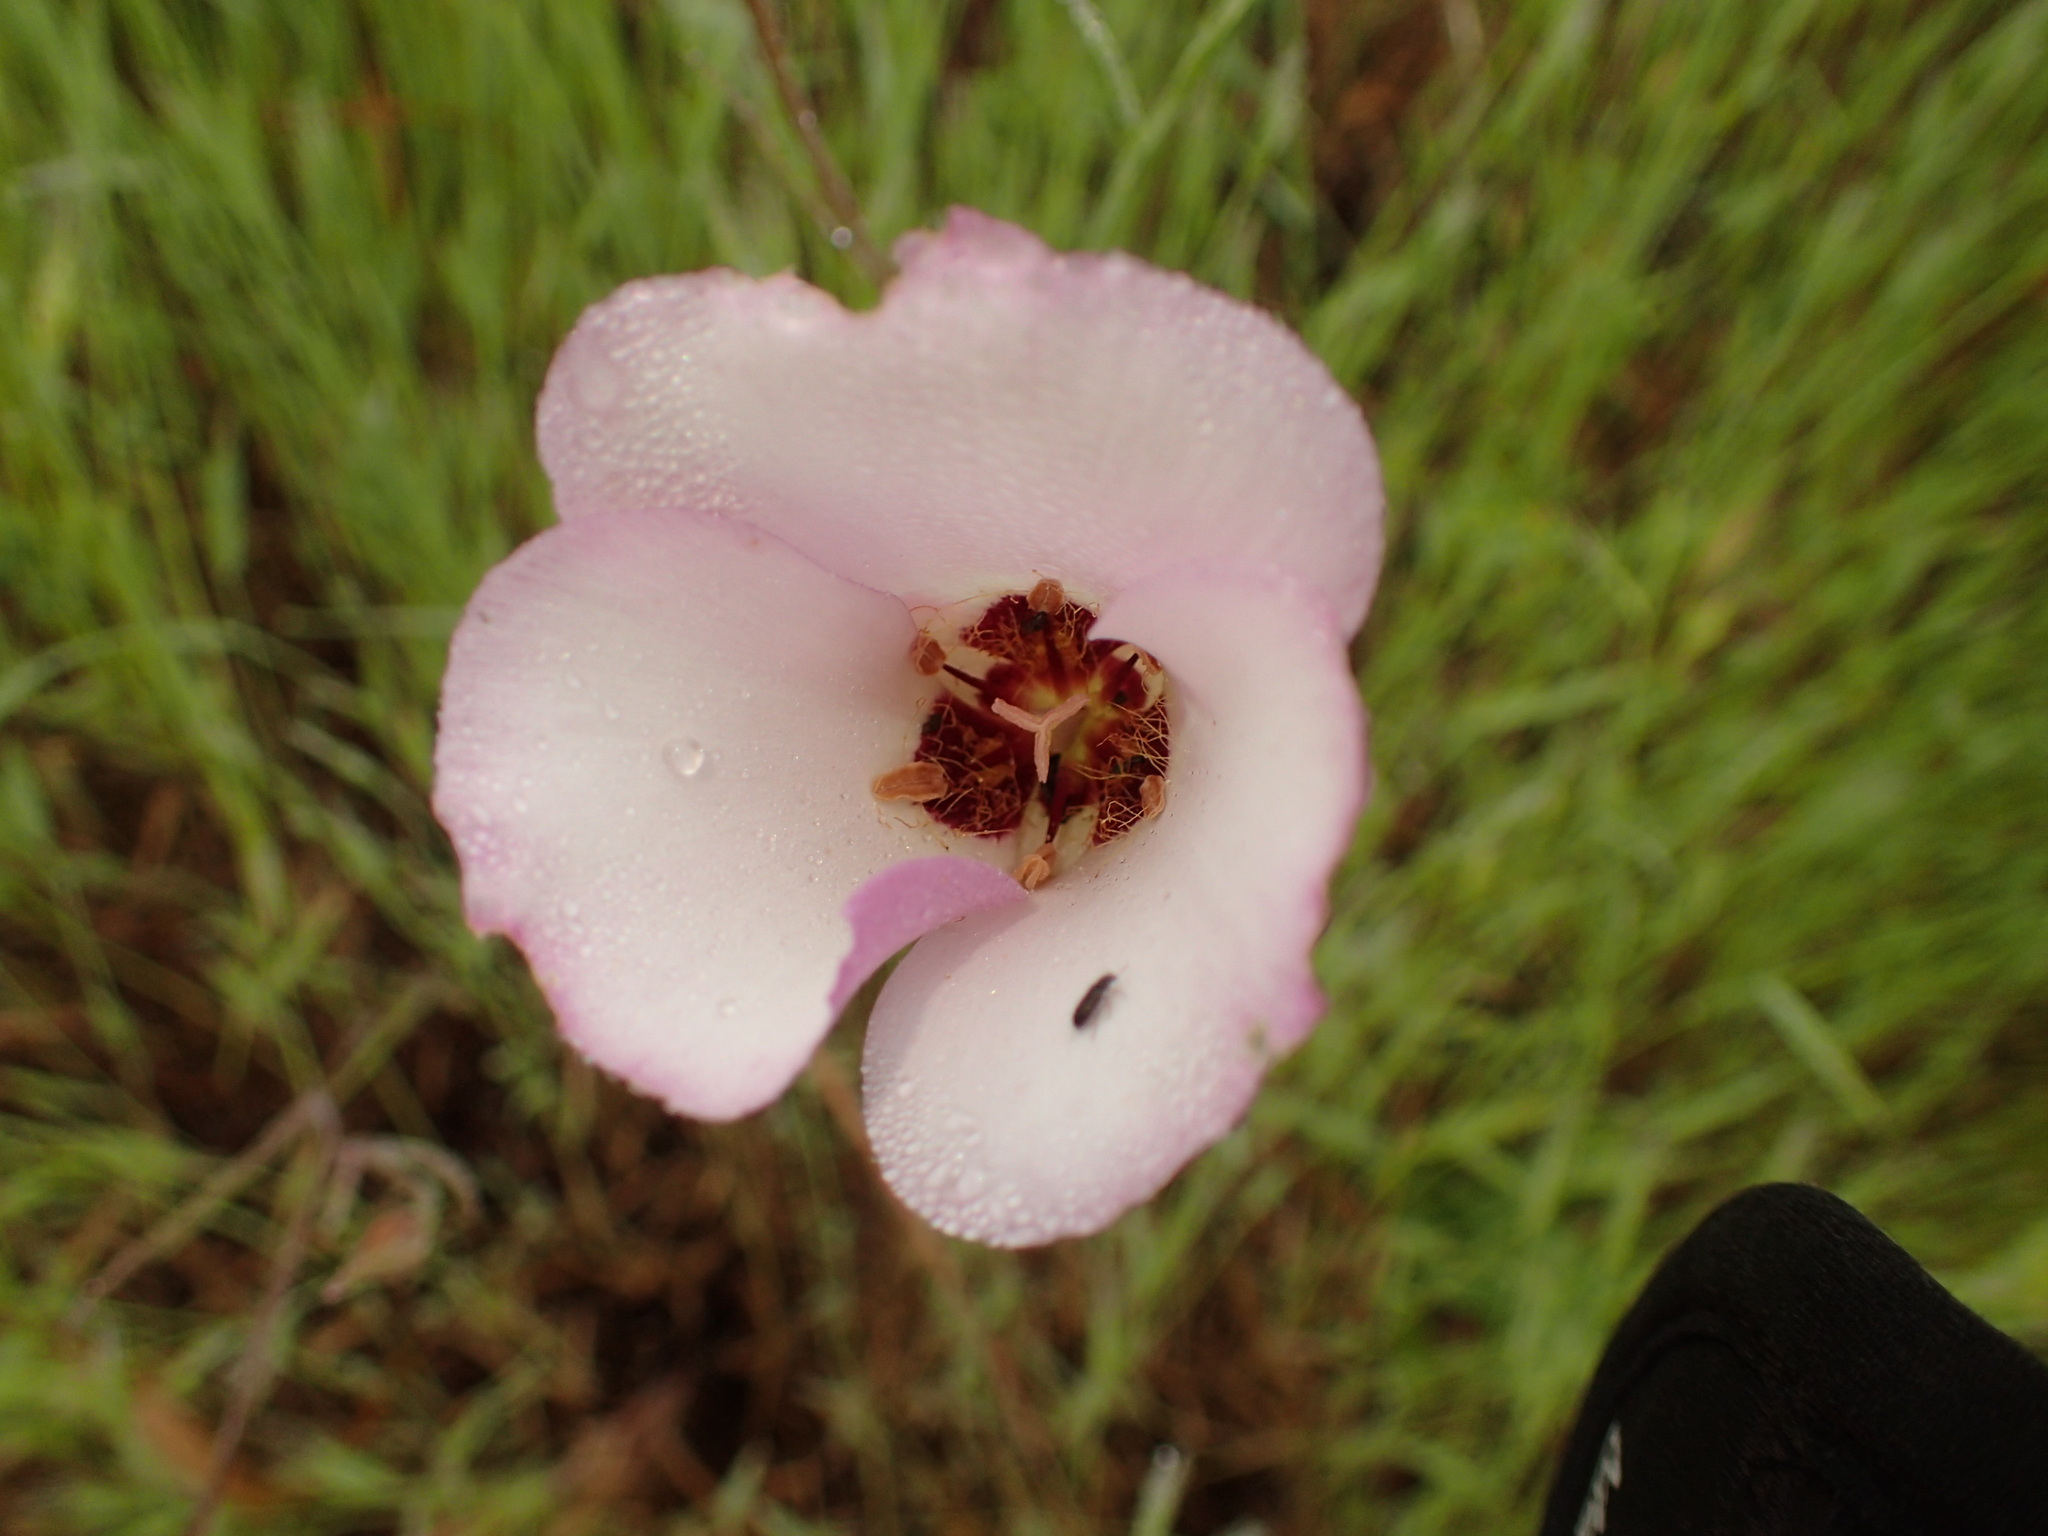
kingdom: Plantae
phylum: Tracheophyta
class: Liliopsida
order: Liliales
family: Liliaceae
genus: Calochortus
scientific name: Calochortus catalinae
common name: Catalina mariposa-lily
